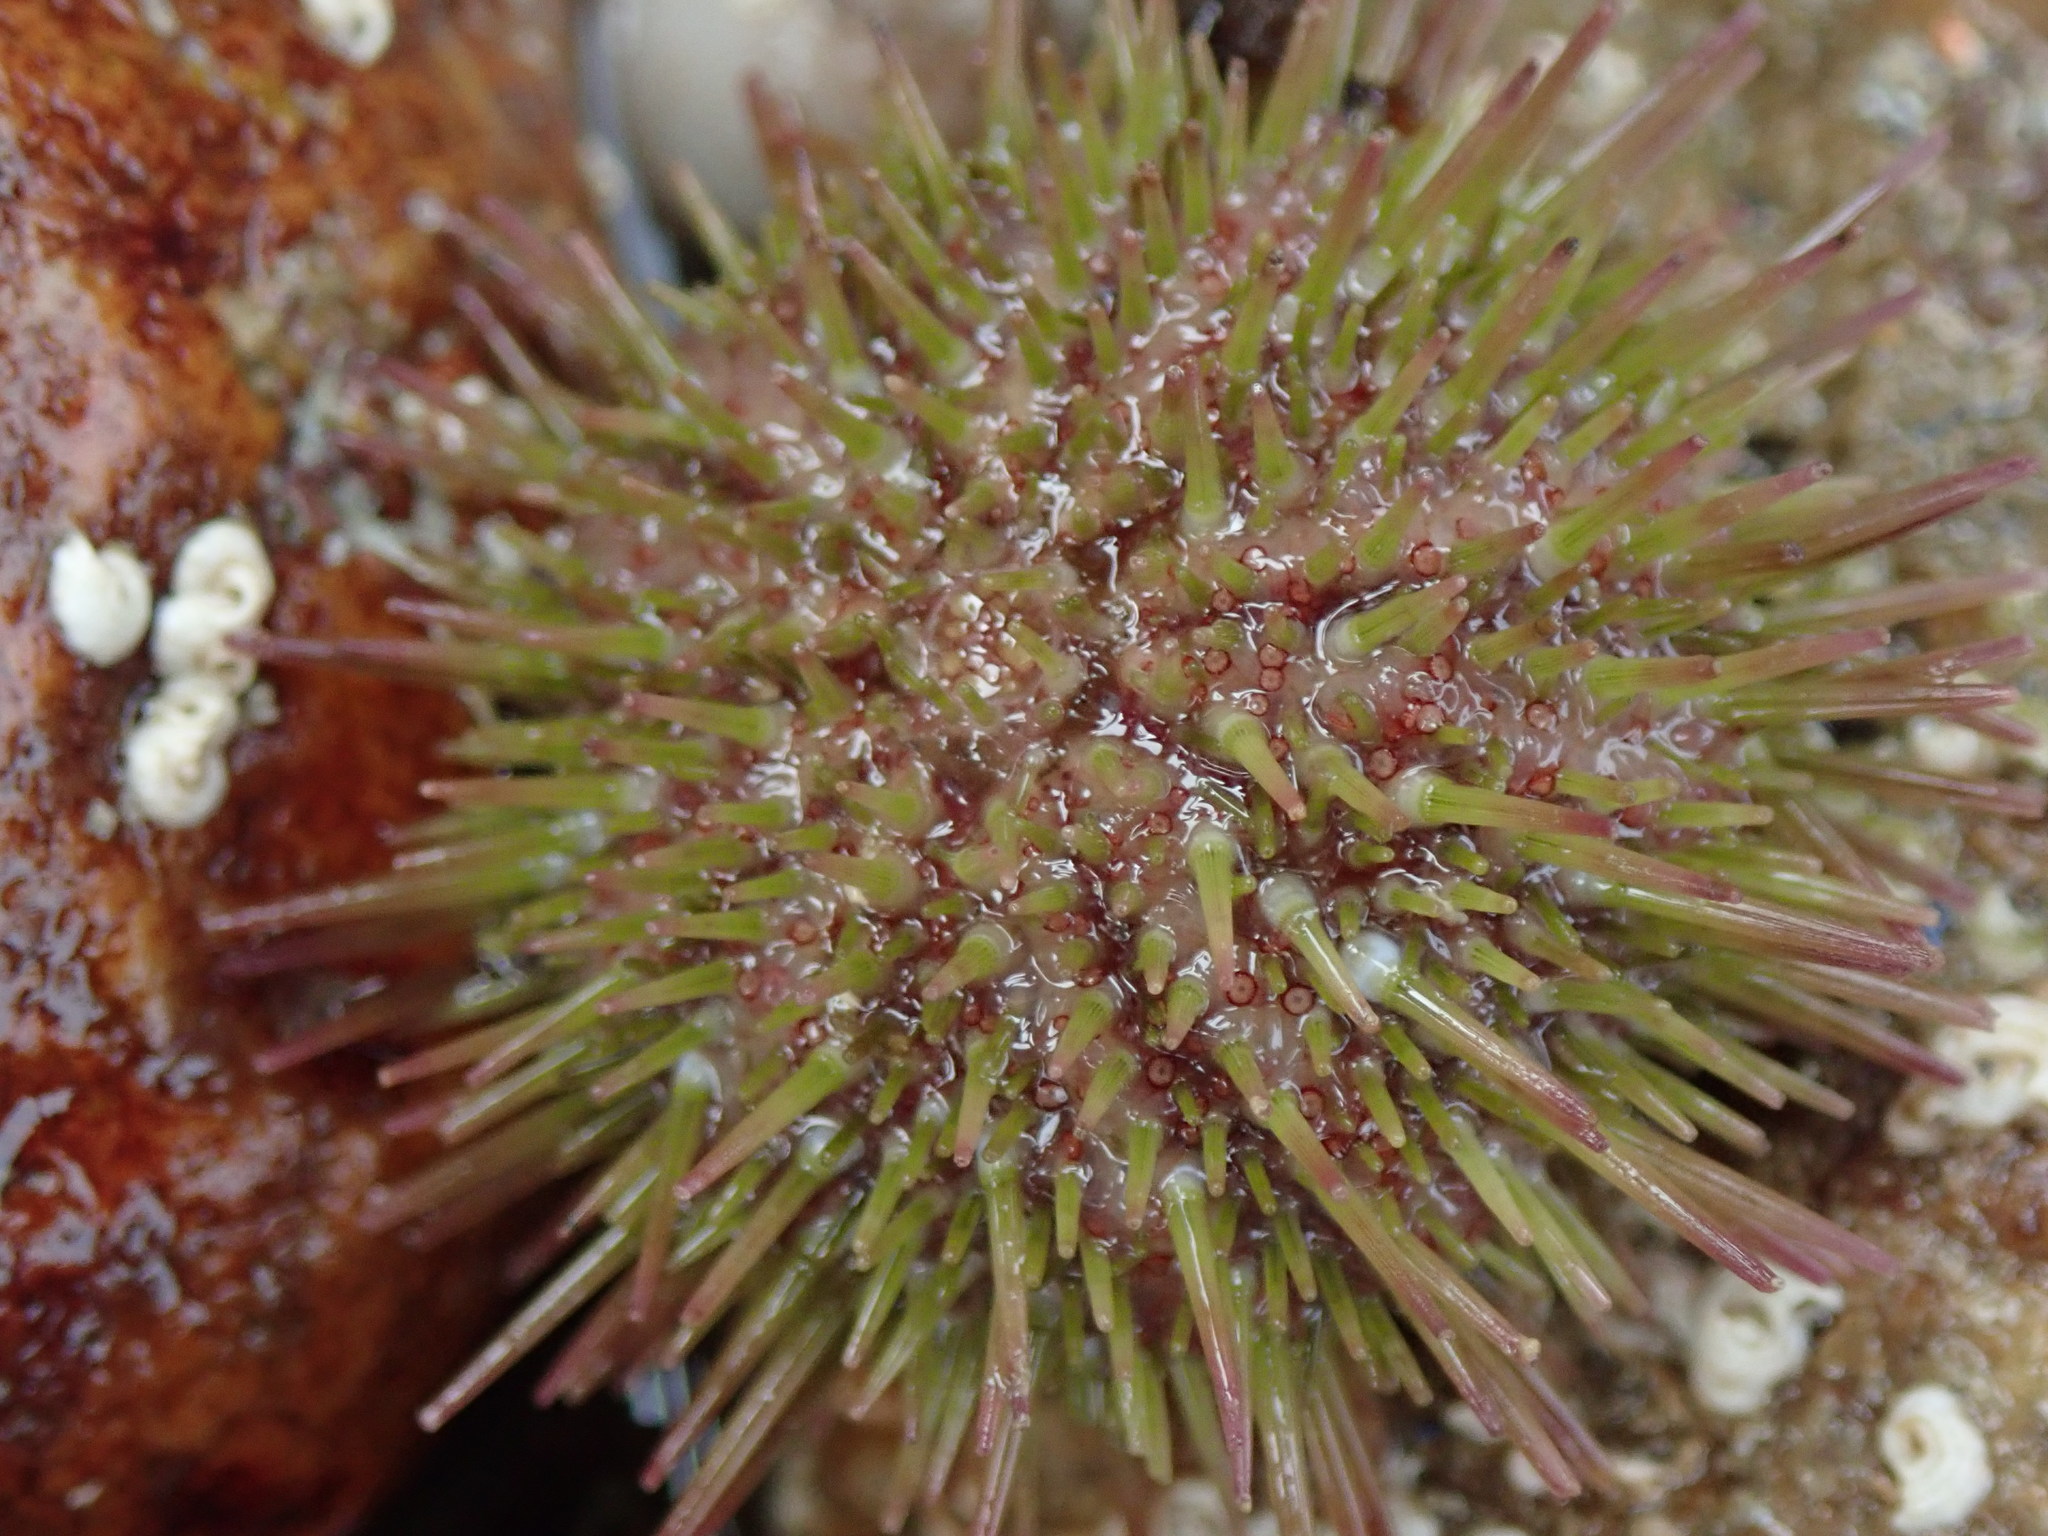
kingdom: Animalia
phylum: Echinodermata
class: Echinoidea
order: Camarodonta
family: Parechinidae
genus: Psammechinus
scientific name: Psammechinus miliaris
